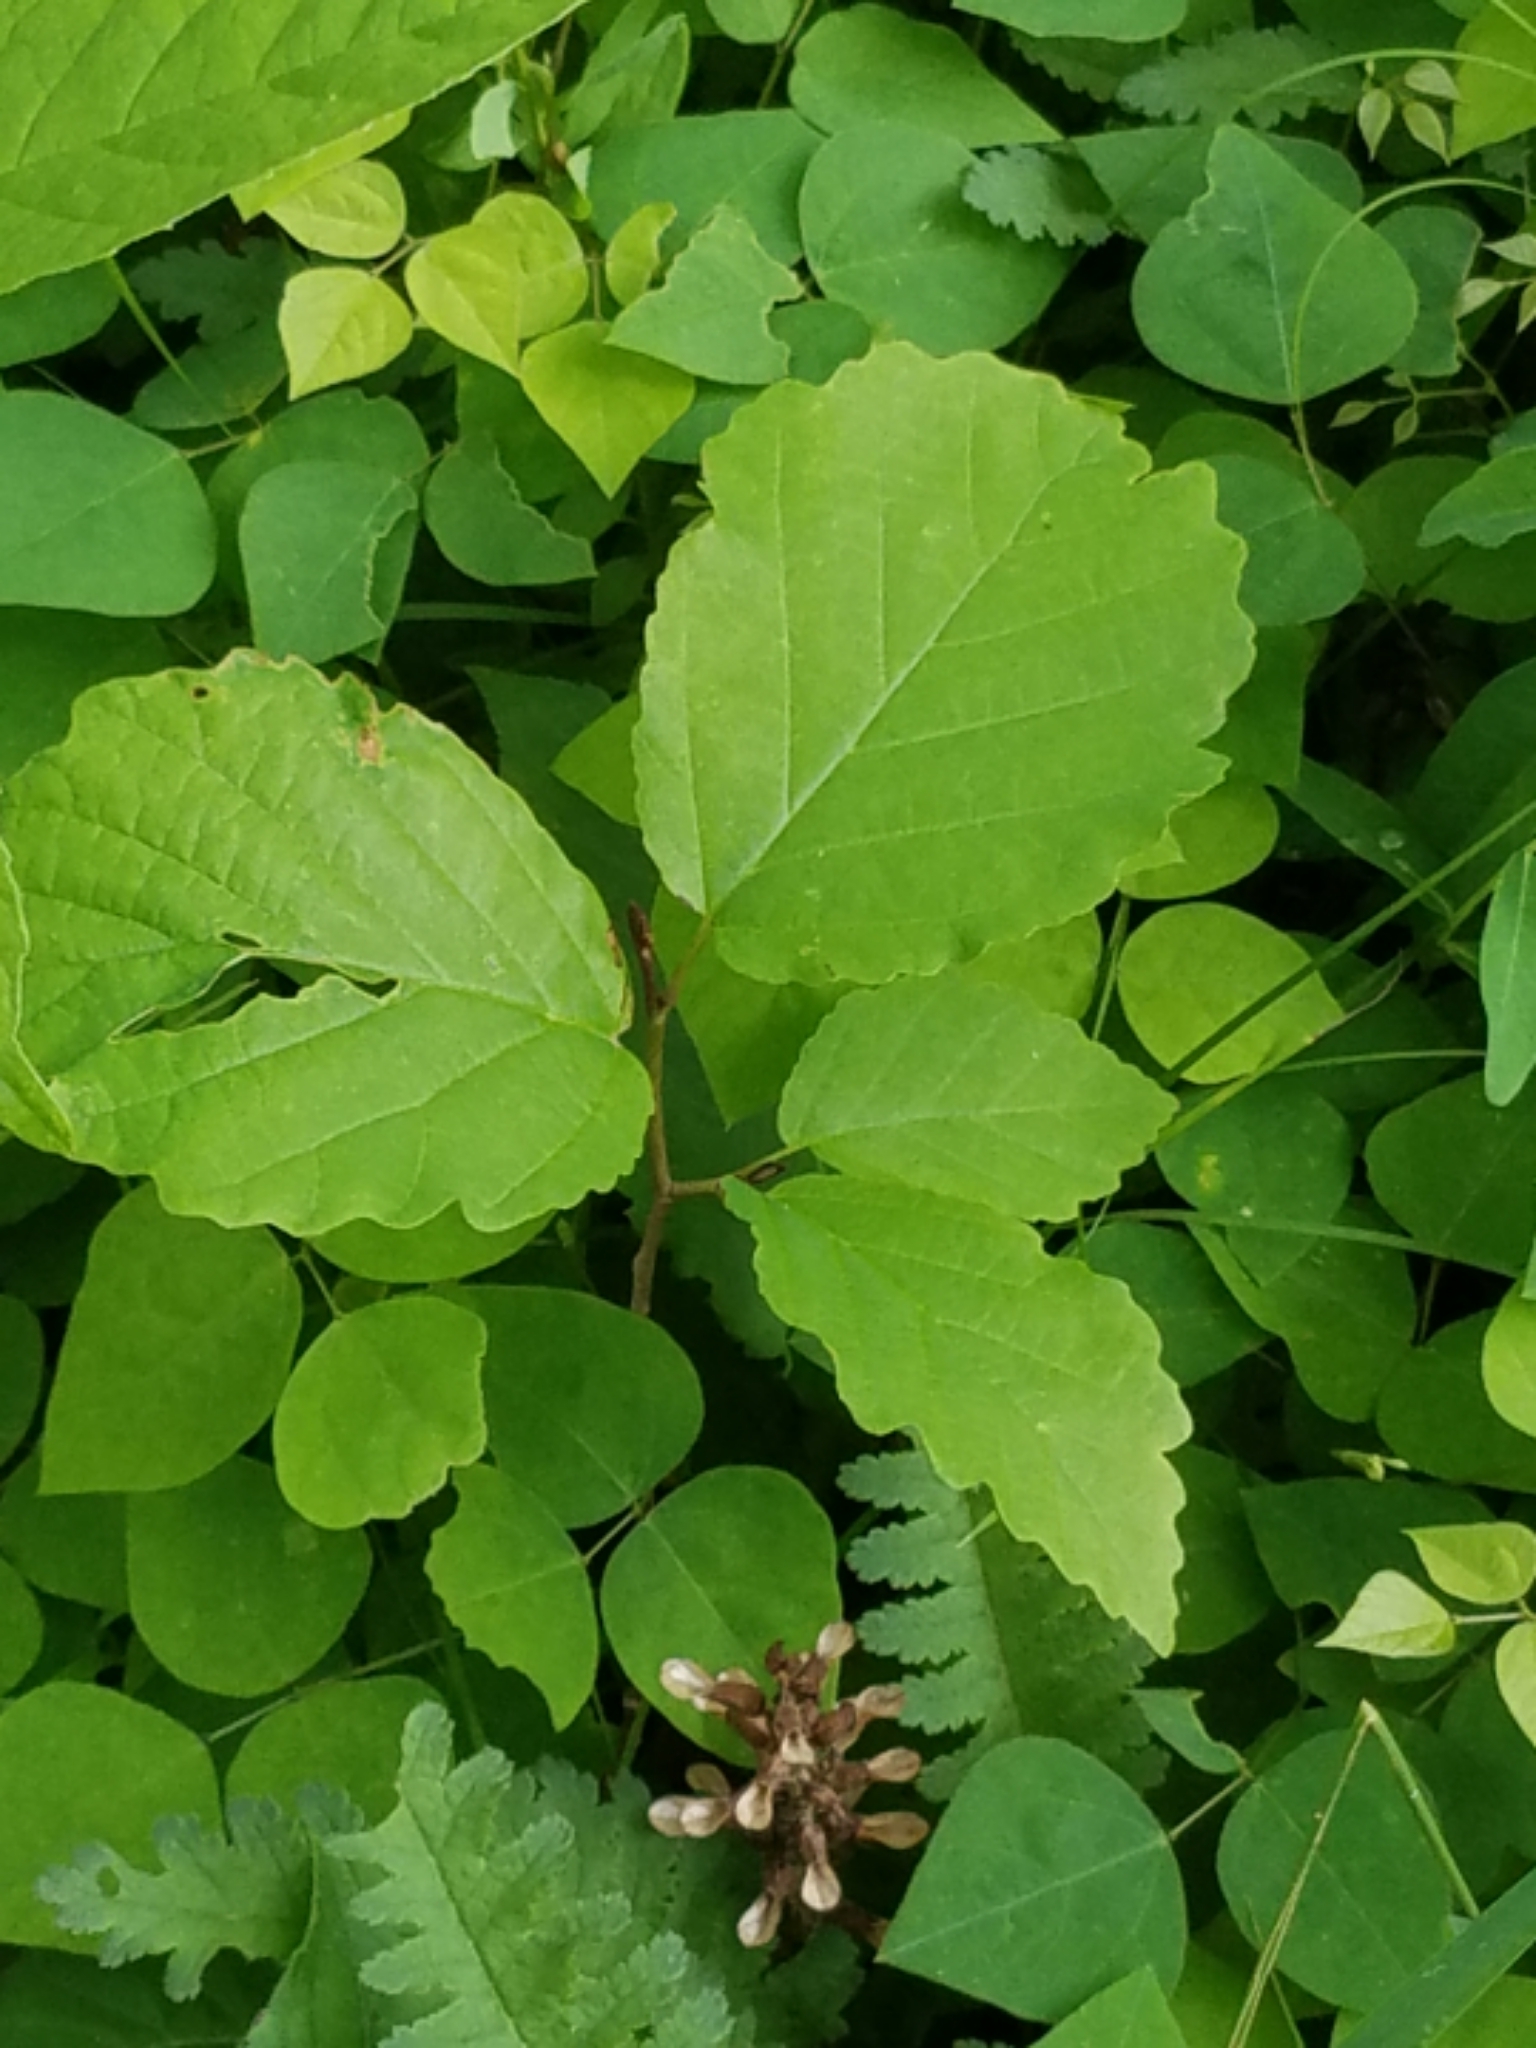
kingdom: Plantae
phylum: Tracheophyta
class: Magnoliopsida
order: Saxifragales
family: Hamamelidaceae
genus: Hamamelis
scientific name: Hamamelis virginiana
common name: Witch-hazel
